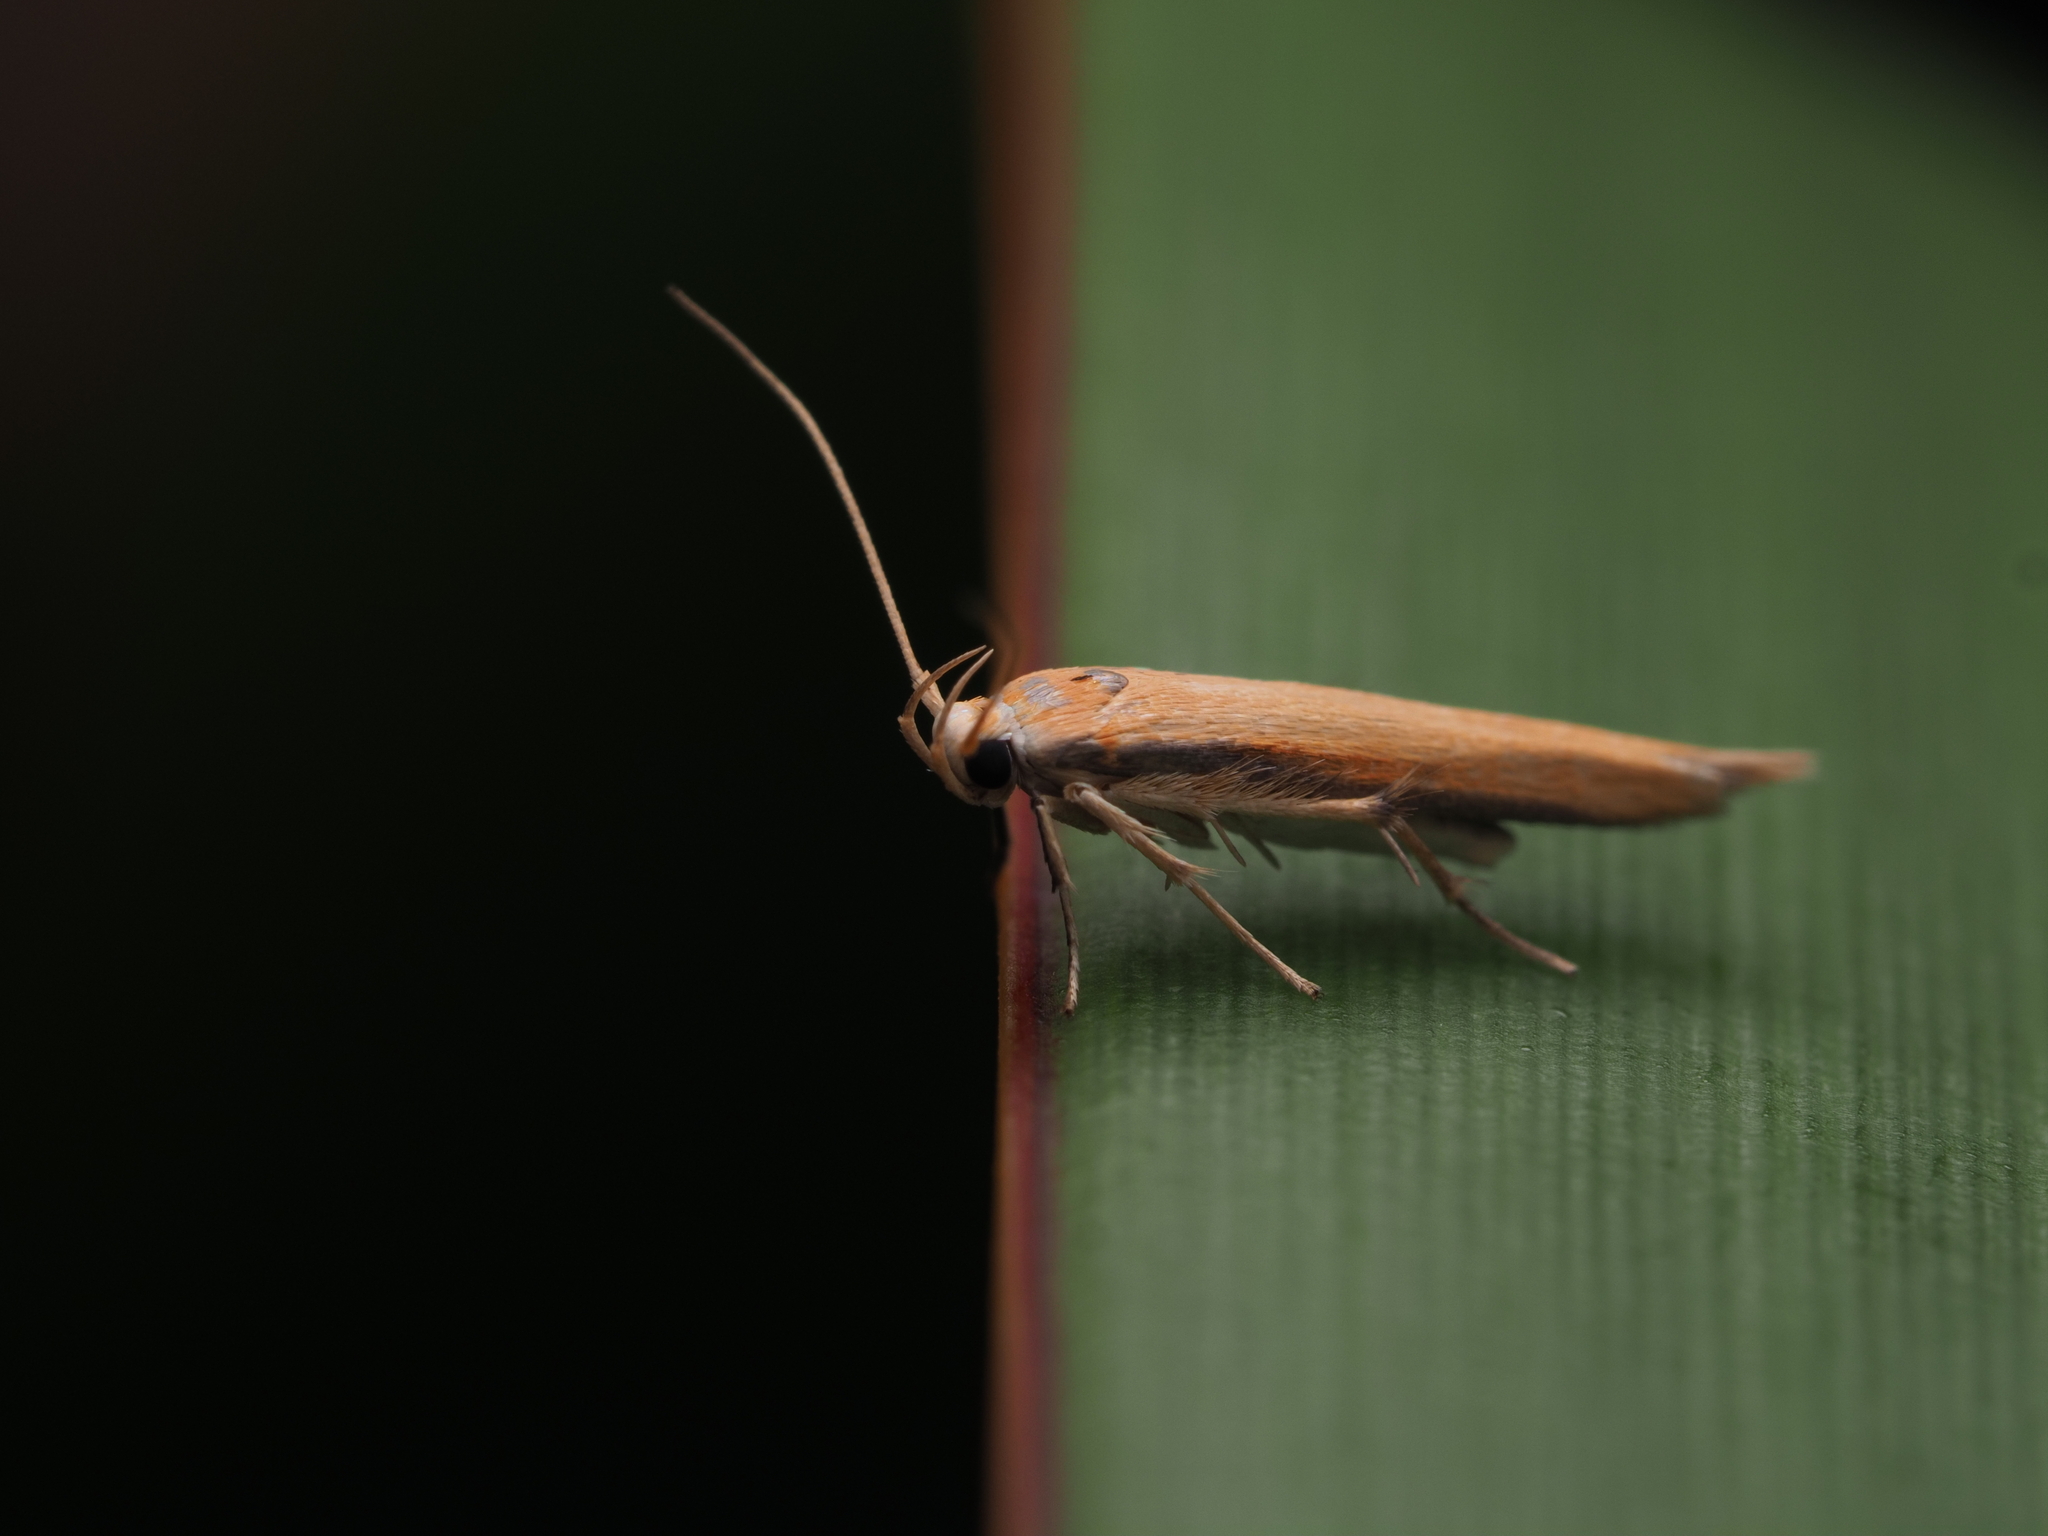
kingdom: Animalia
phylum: Arthropoda
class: Insecta
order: Lepidoptera
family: Stathmopodidae
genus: Stathmopoda
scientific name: Stathmopoda skelloni
